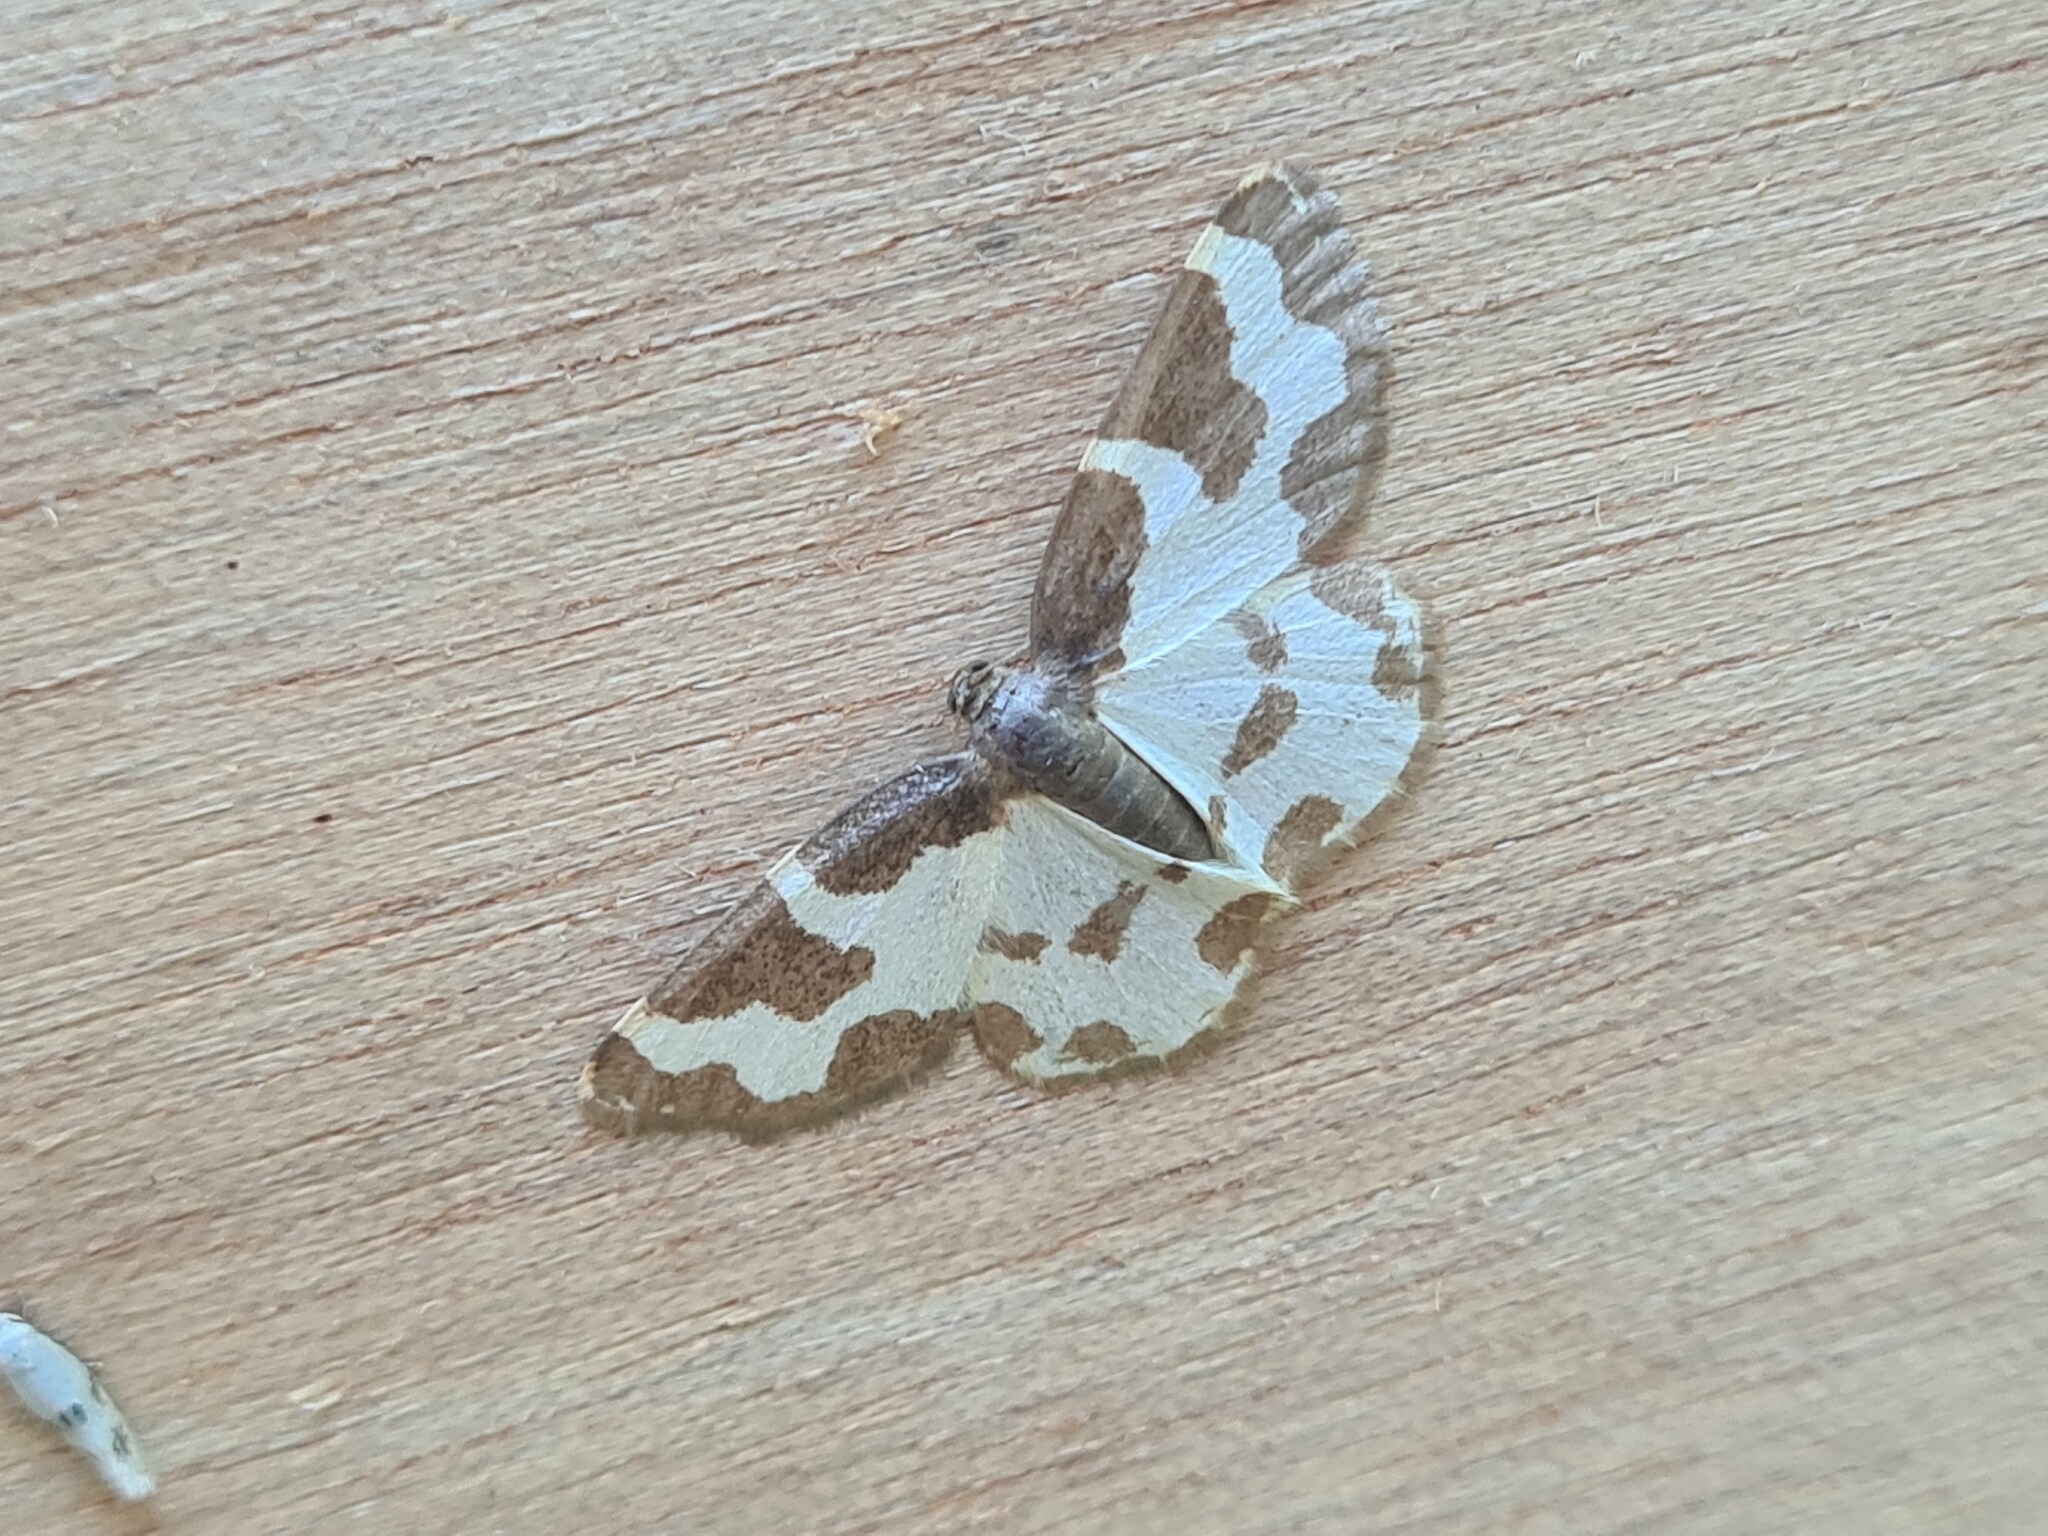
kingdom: Animalia
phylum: Arthropoda
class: Insecta
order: Lepidoptera
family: Geometridae
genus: Lomaspilis
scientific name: Lomaspilis marginata
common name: Clouded border
